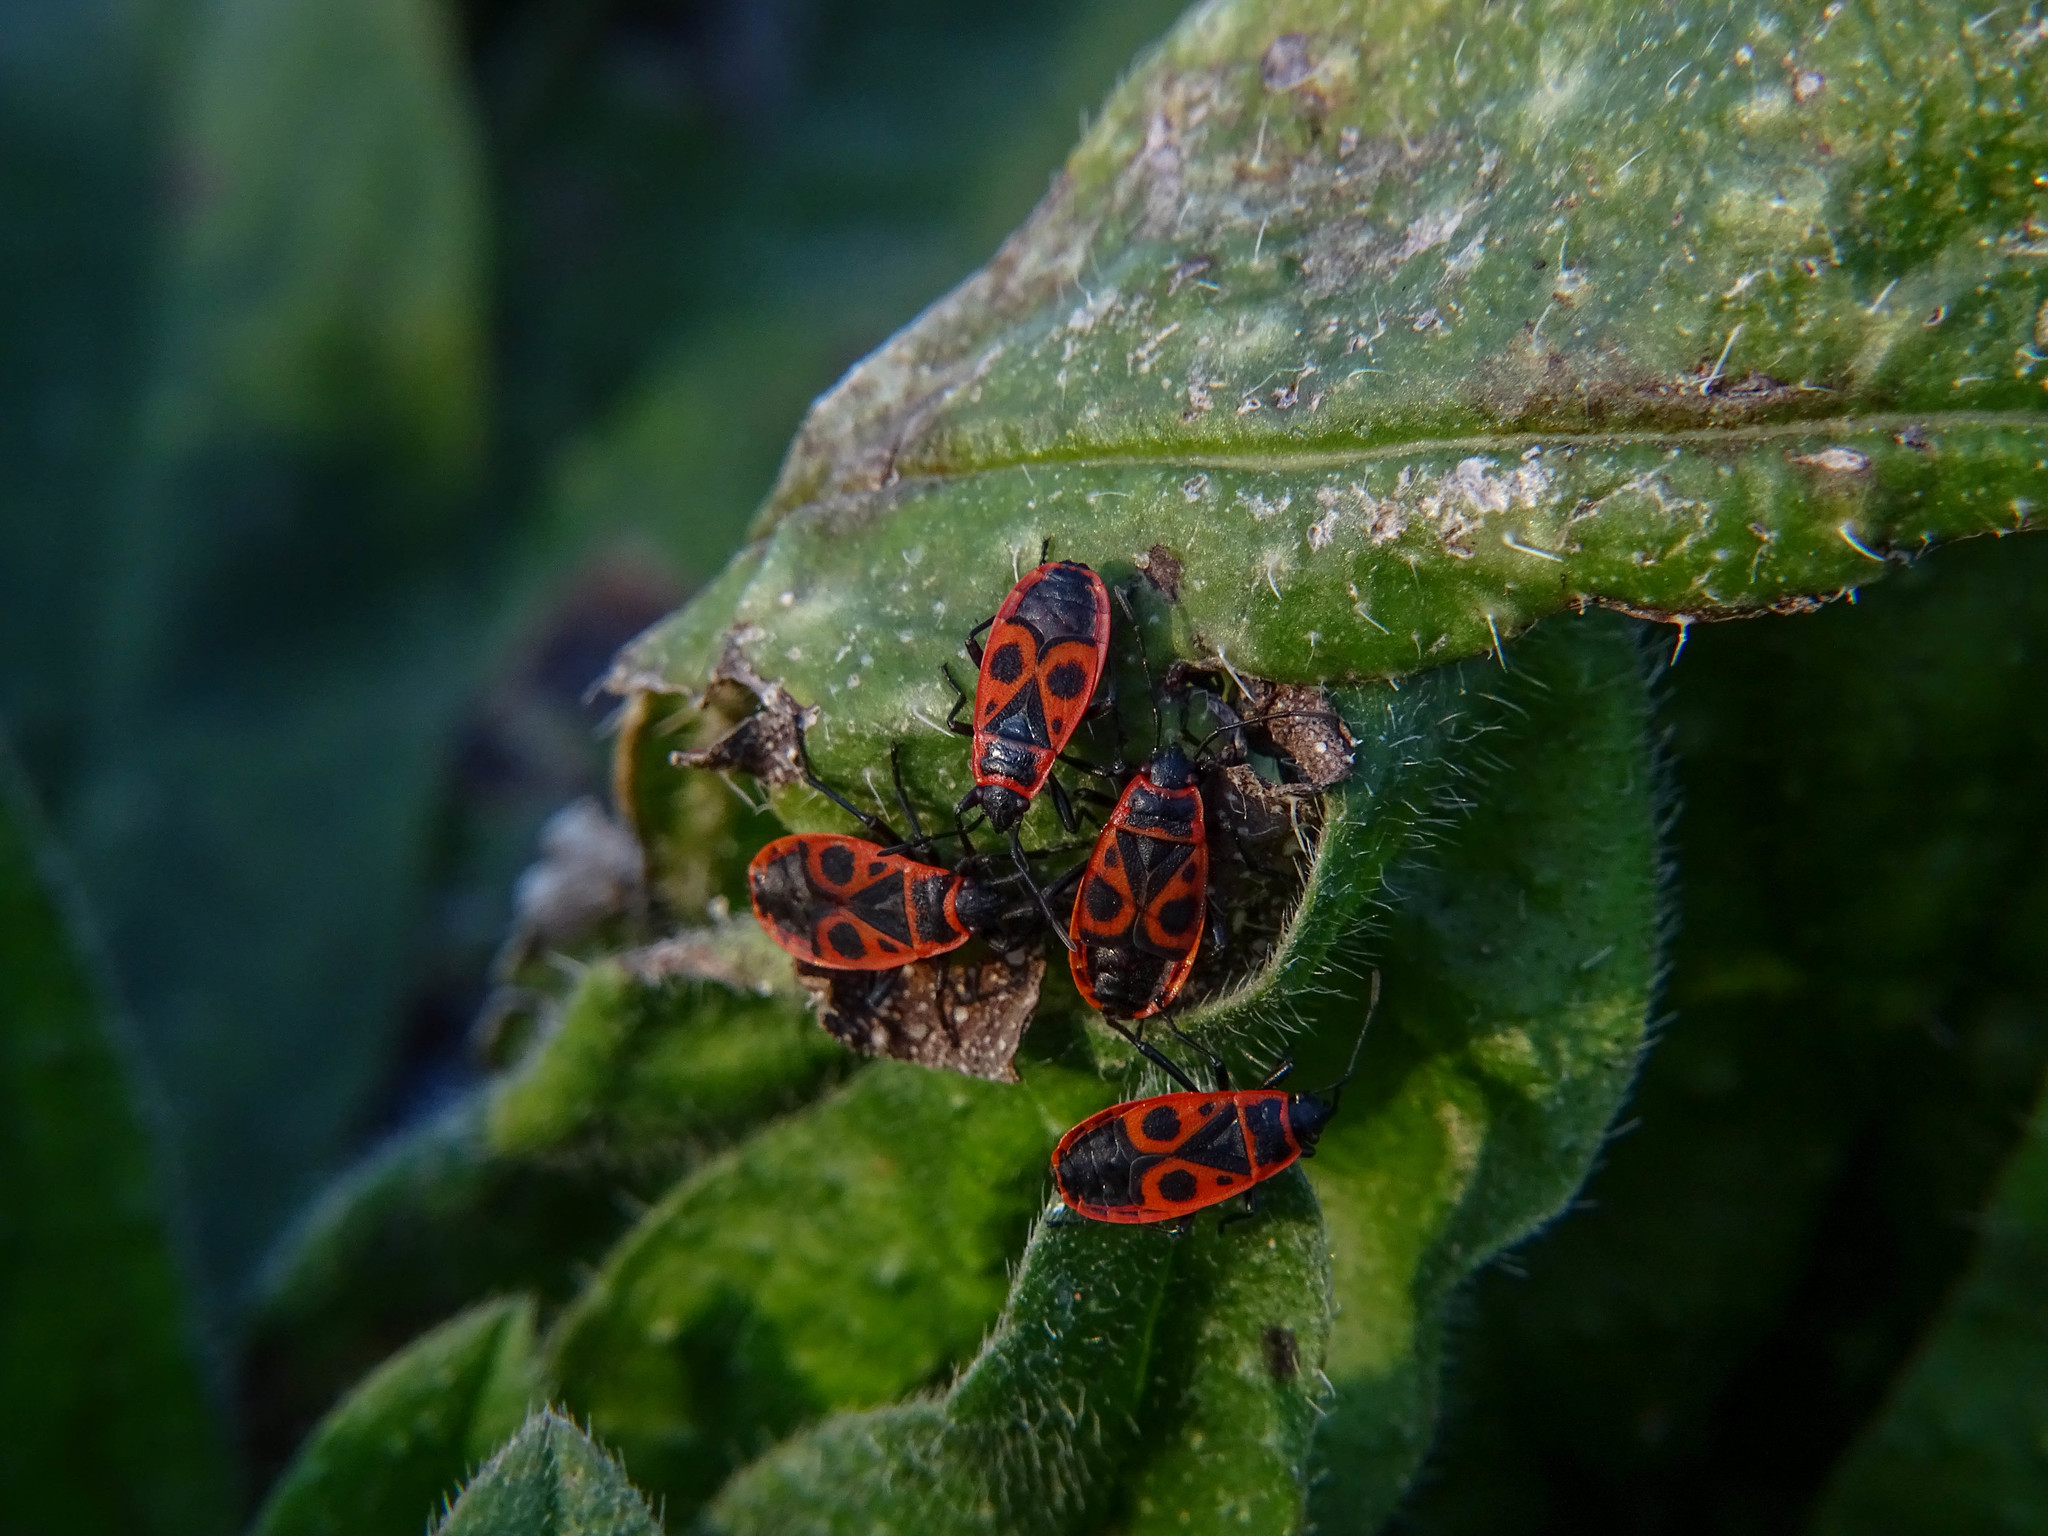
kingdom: Animalia
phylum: Arthropoda
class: Insecta
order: Hemiptera
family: Pyrrhocoridae
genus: Pyrrhocoris
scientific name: Pyrrhocoris apterus
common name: Firebug
